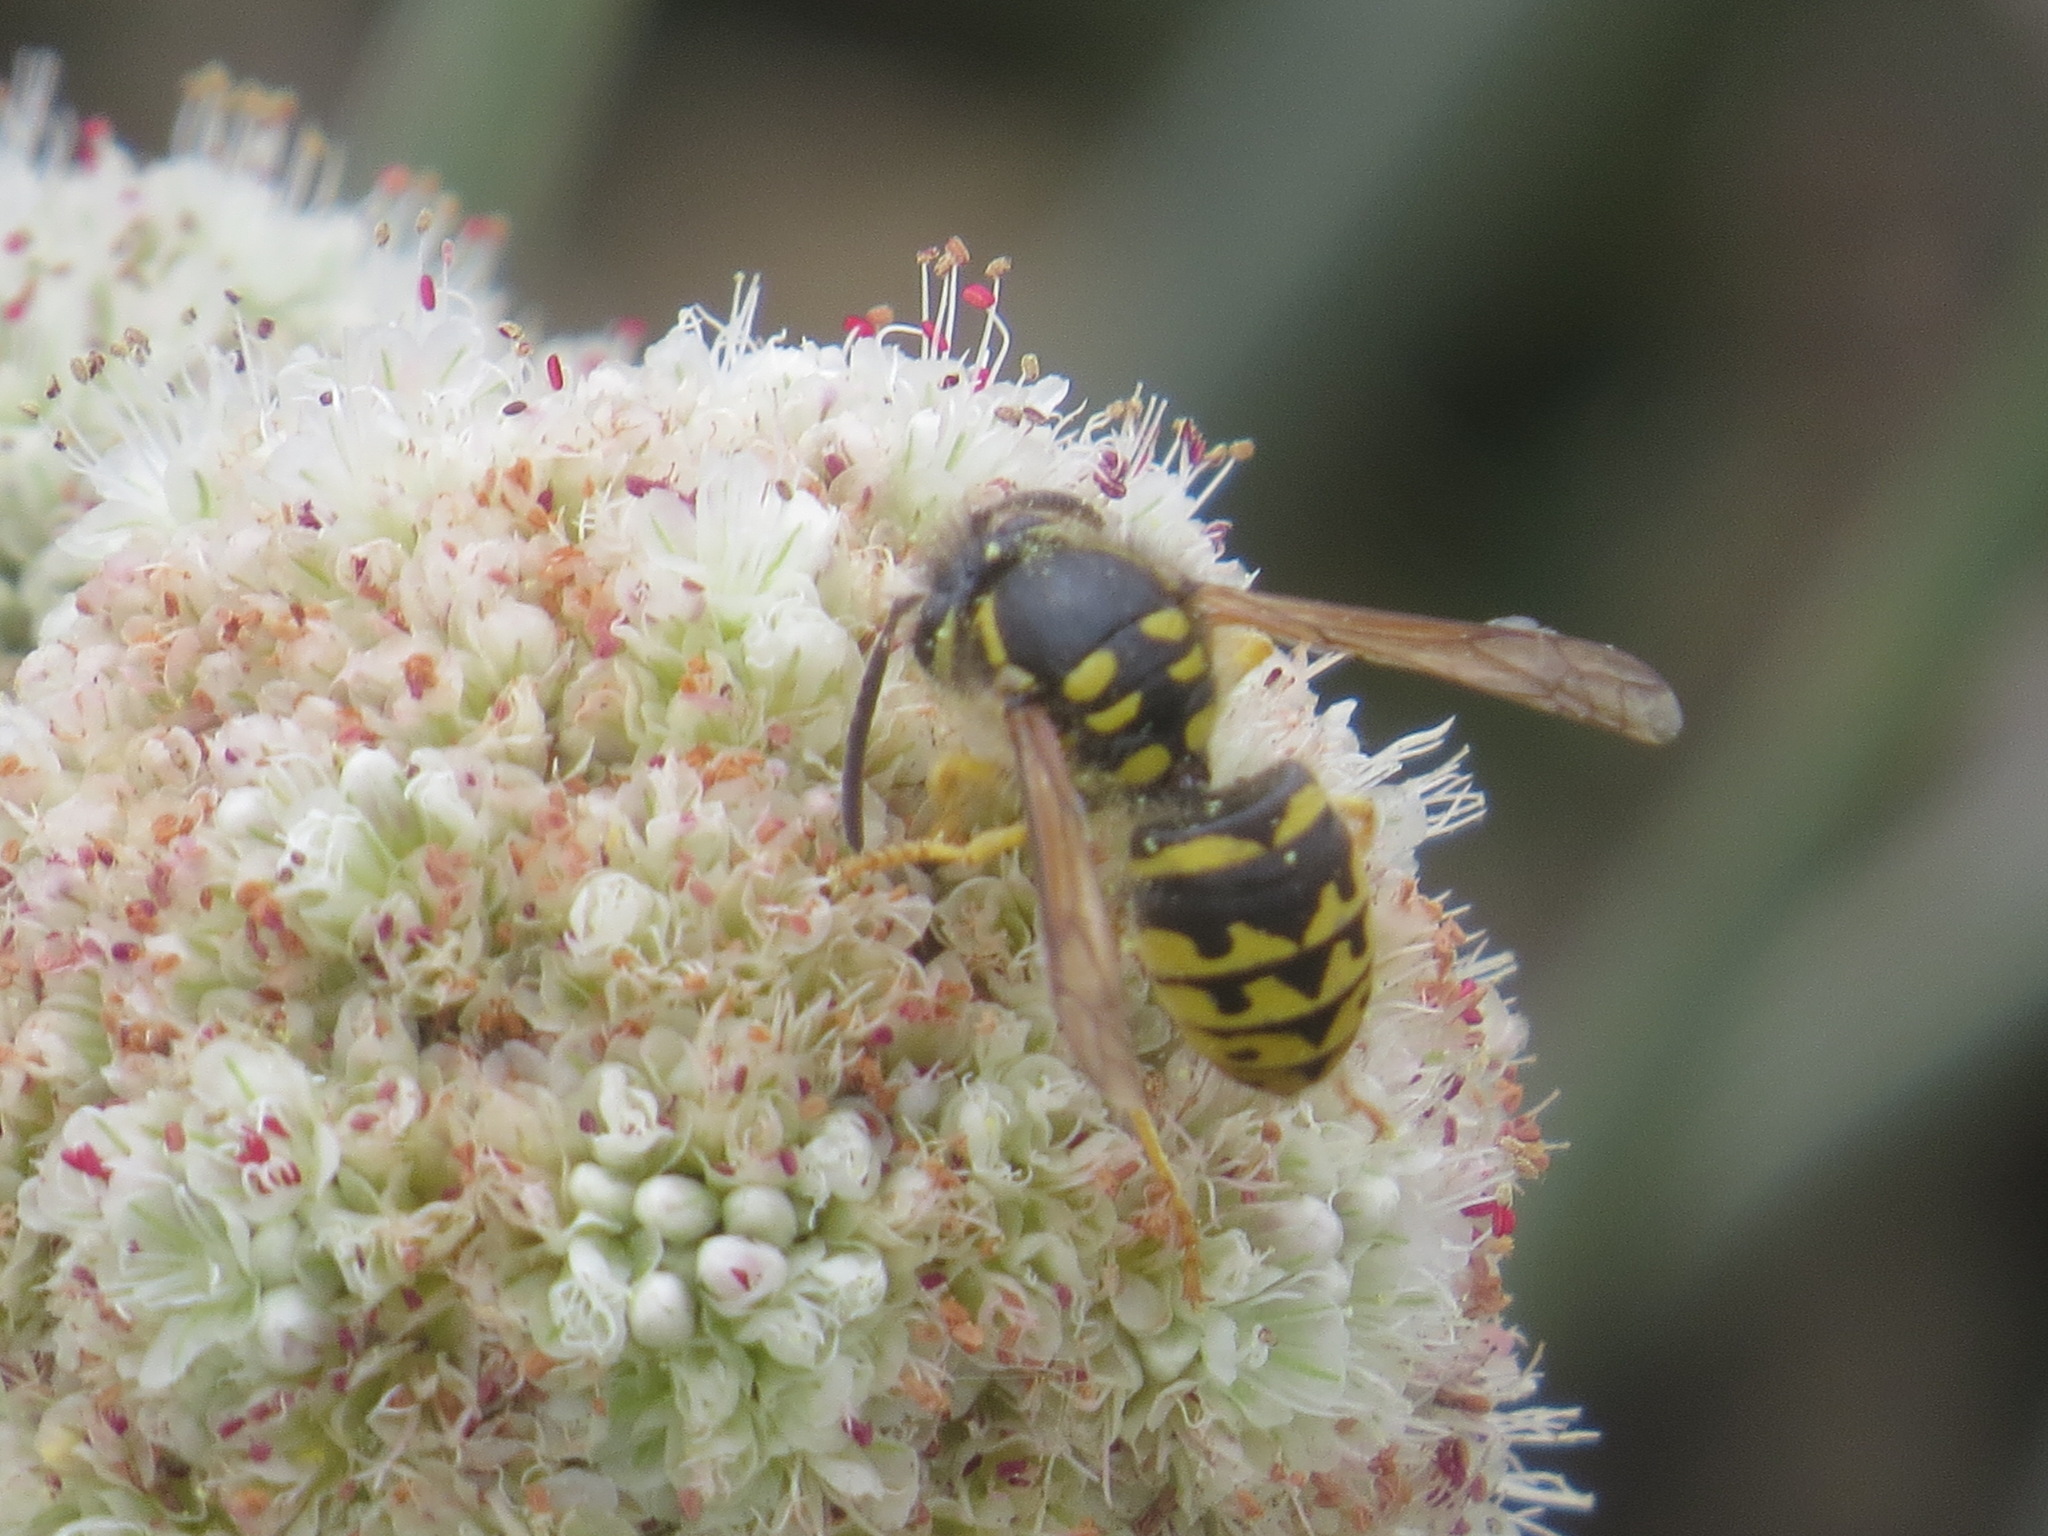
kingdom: Animalia
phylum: Arthropoda
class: Insecta
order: Hymenoptera
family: Vespidae
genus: Dolichovespula
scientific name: Dolichovespula arenaria
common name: Aerial yellowjacket
